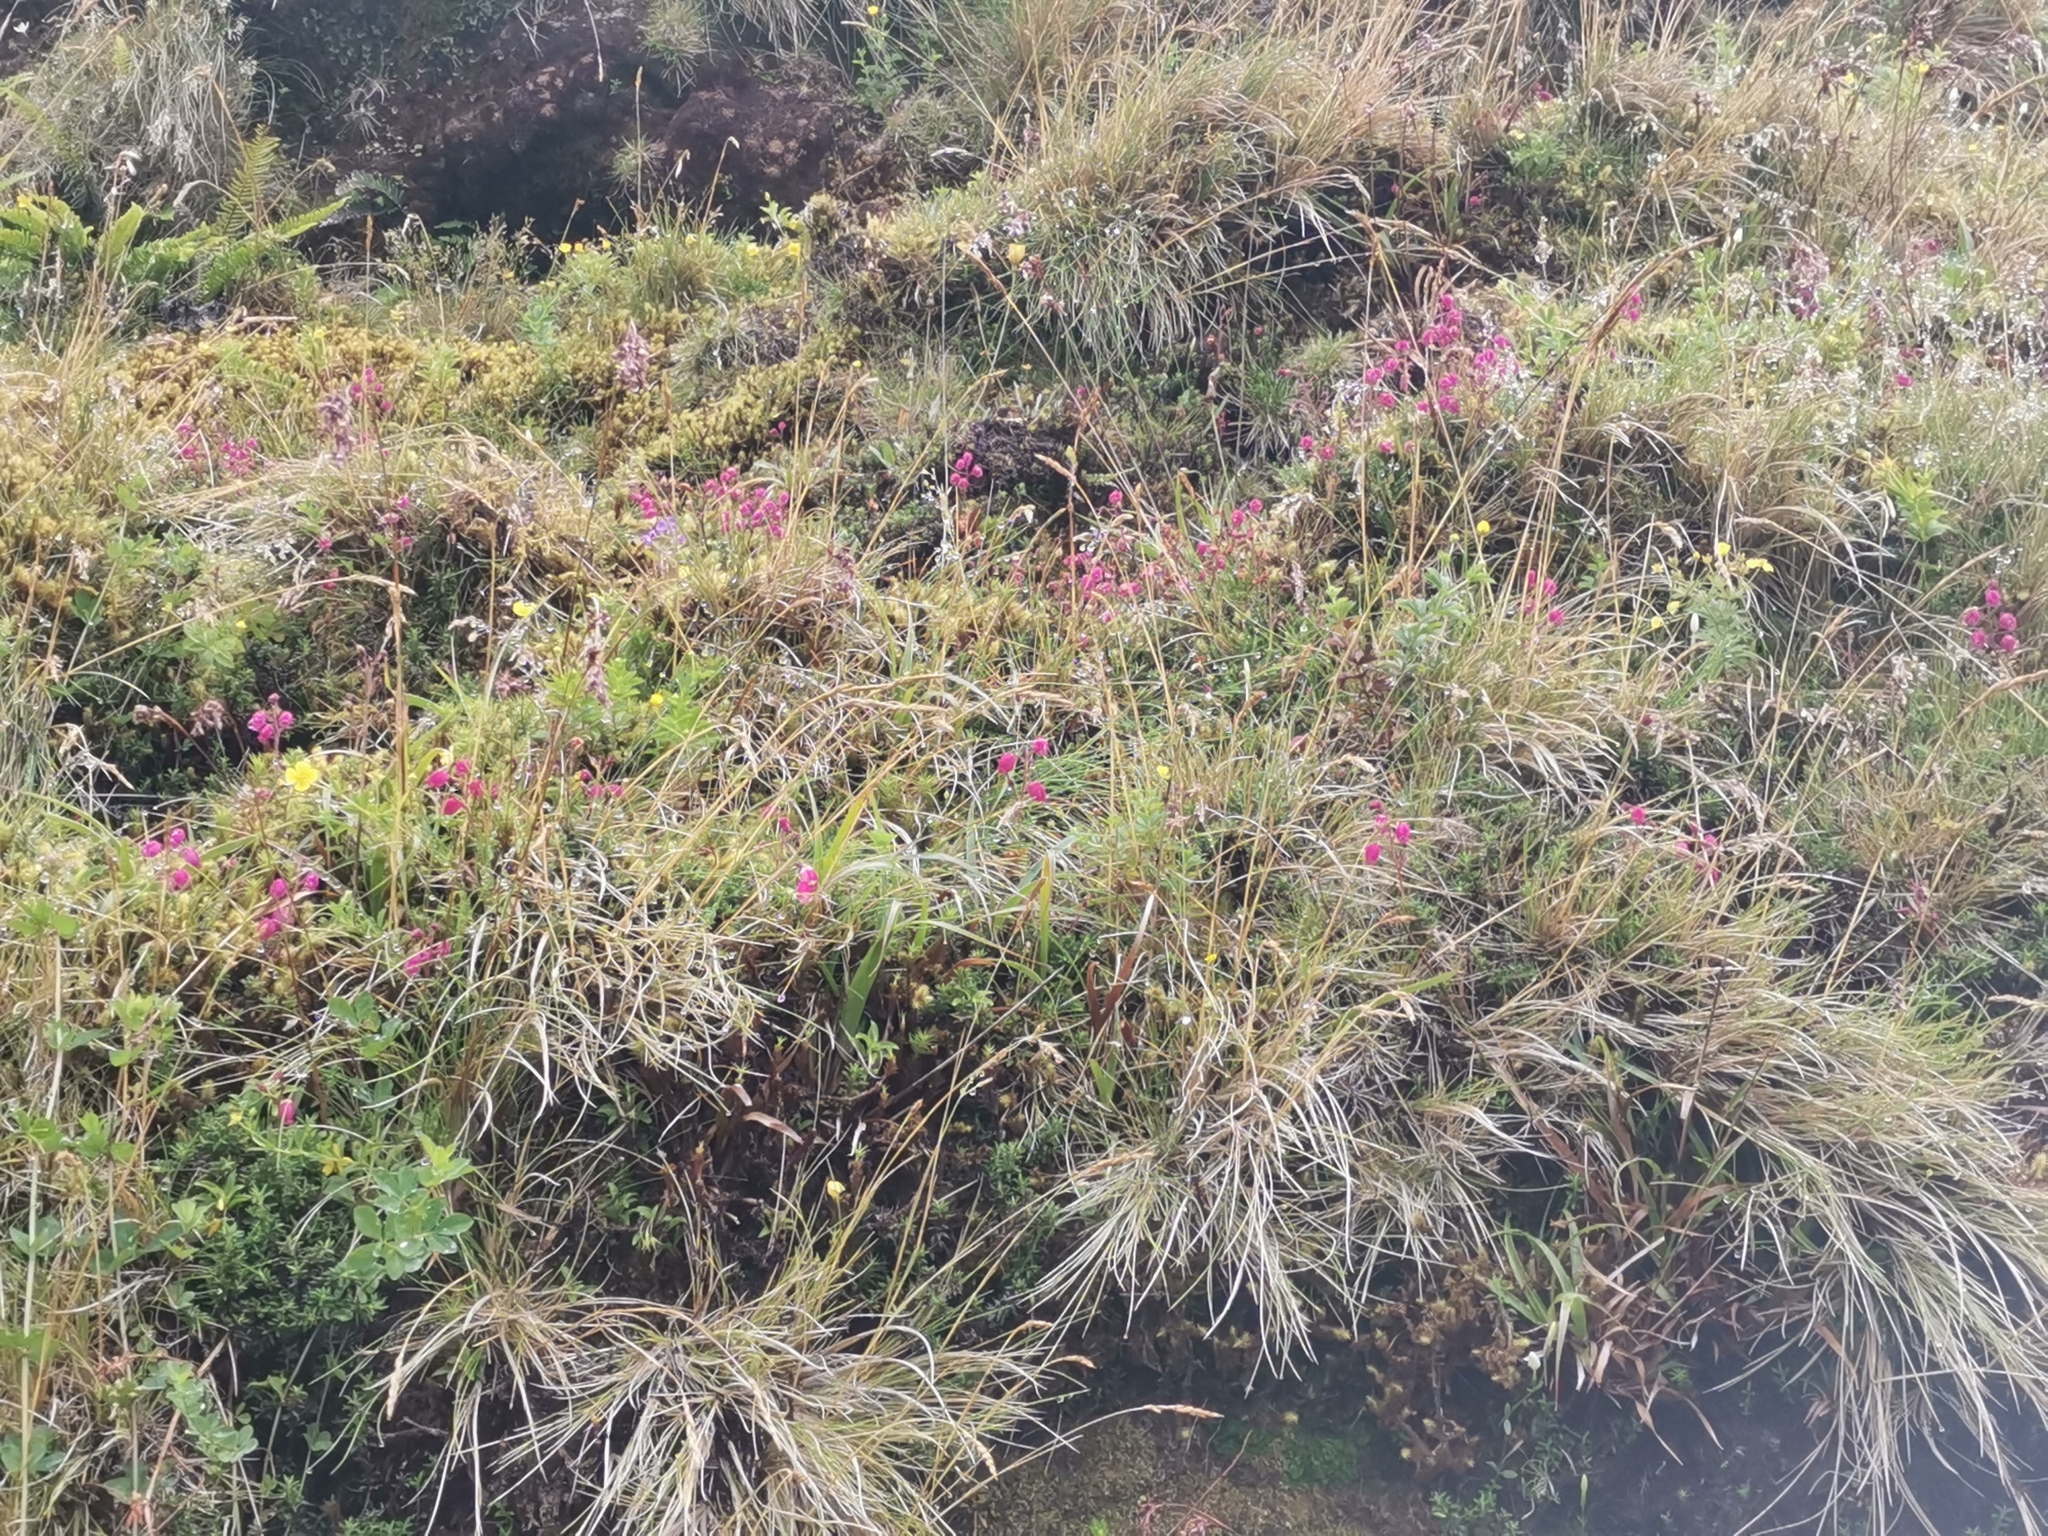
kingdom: Plantae
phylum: Tracheophyta
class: Magnoliopsida
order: Ericales
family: Ericaceae
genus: Daboecia
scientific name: Daboecia cantabrica
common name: St. dabeoc's-heath
